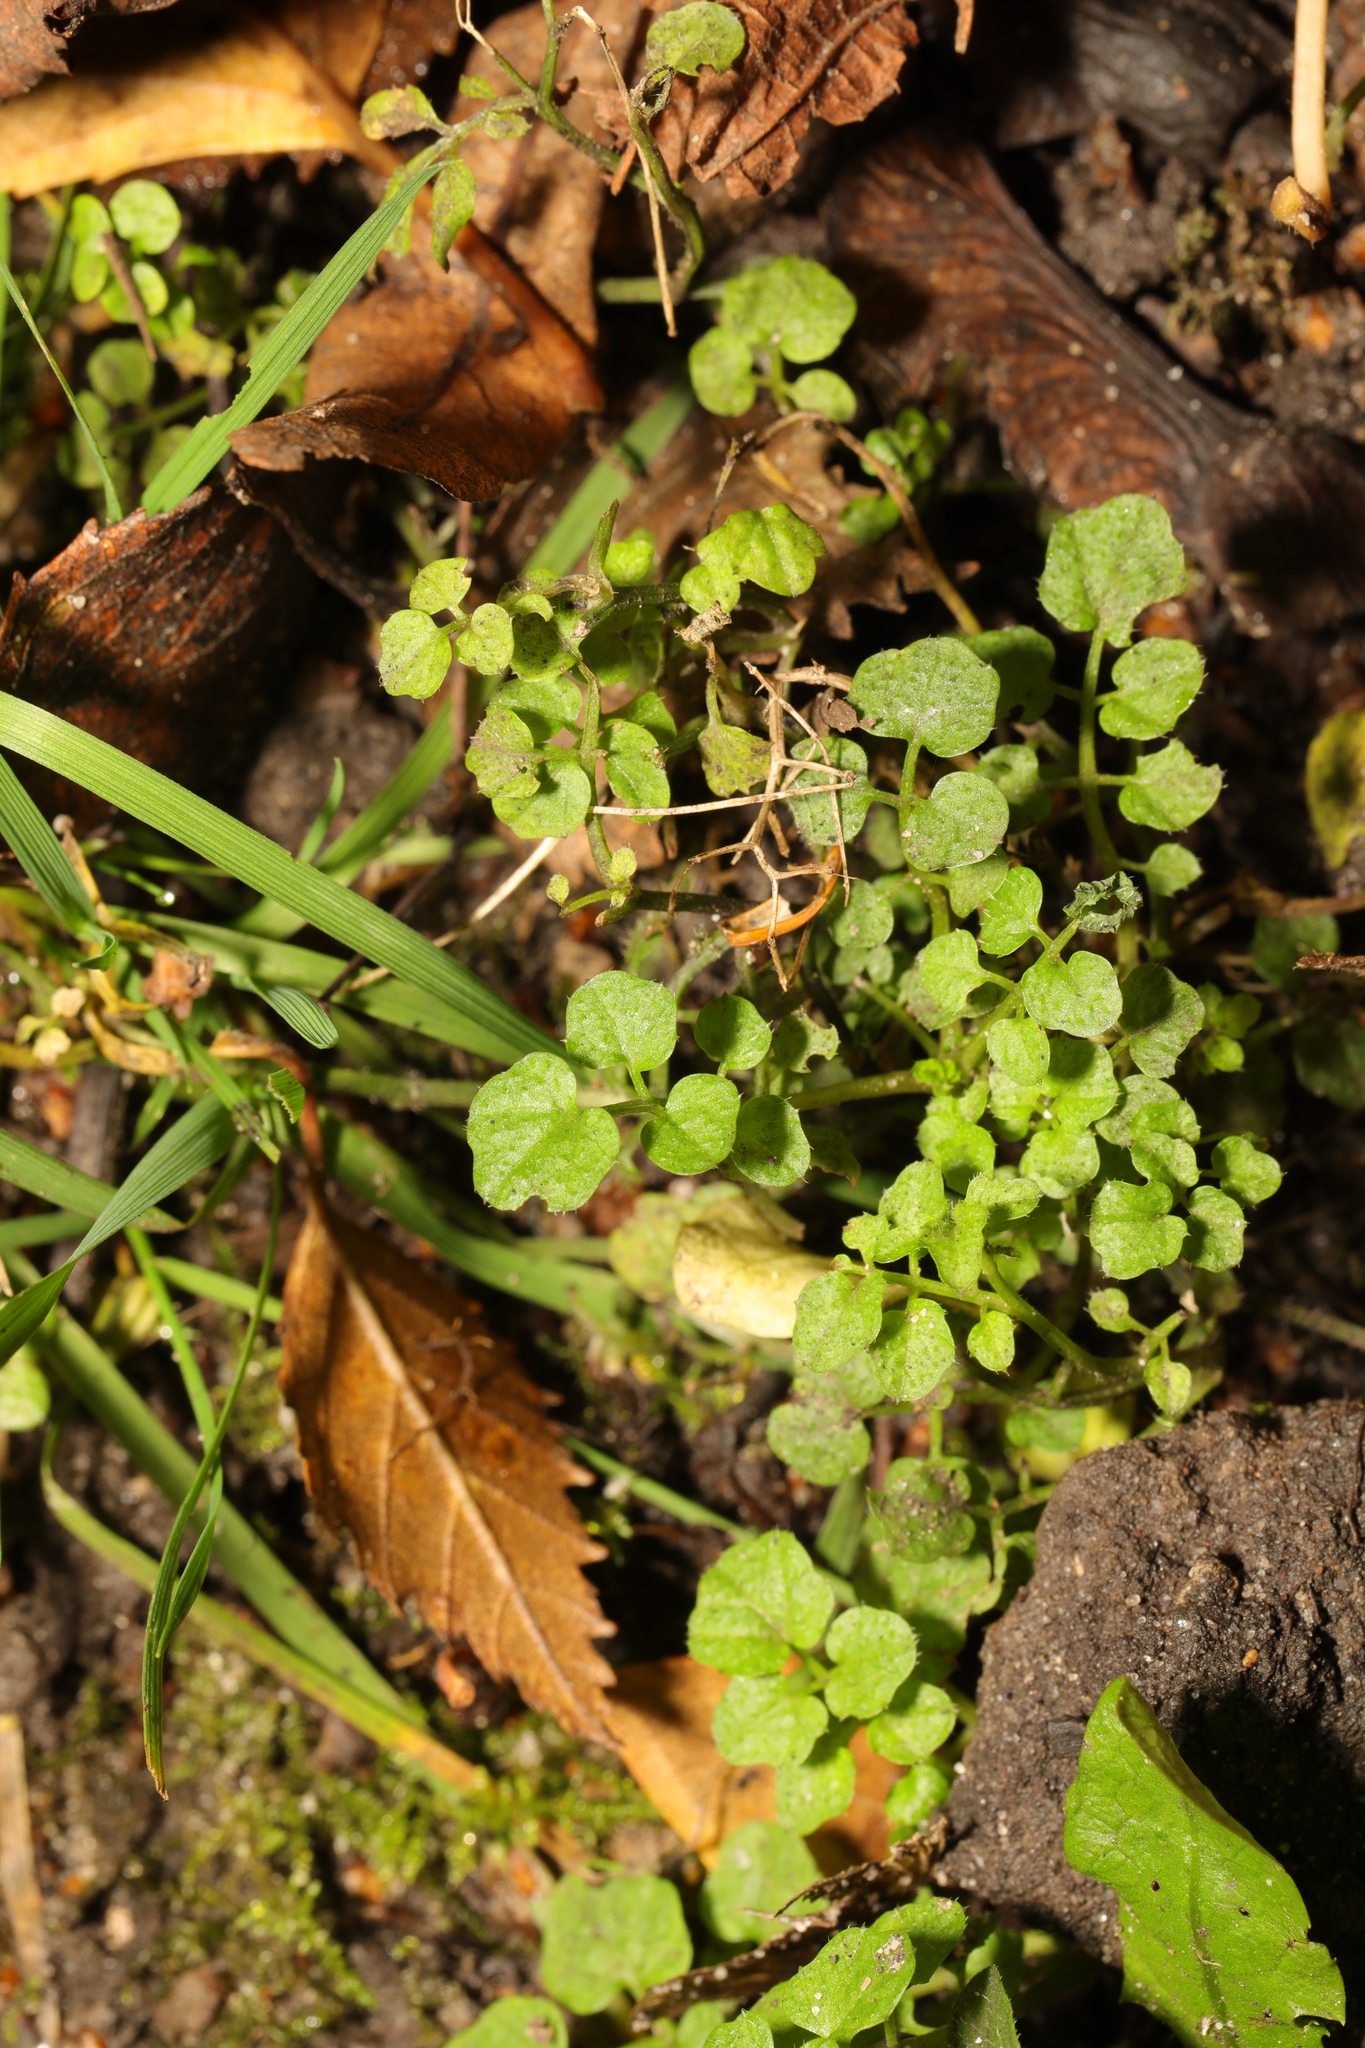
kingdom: Plantae
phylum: Tracheophyta
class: Magnoliopsida
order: Brassicales
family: Brassicaceae
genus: Cardamine
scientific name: Cardamine flexuosa
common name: Woodland bittercress
